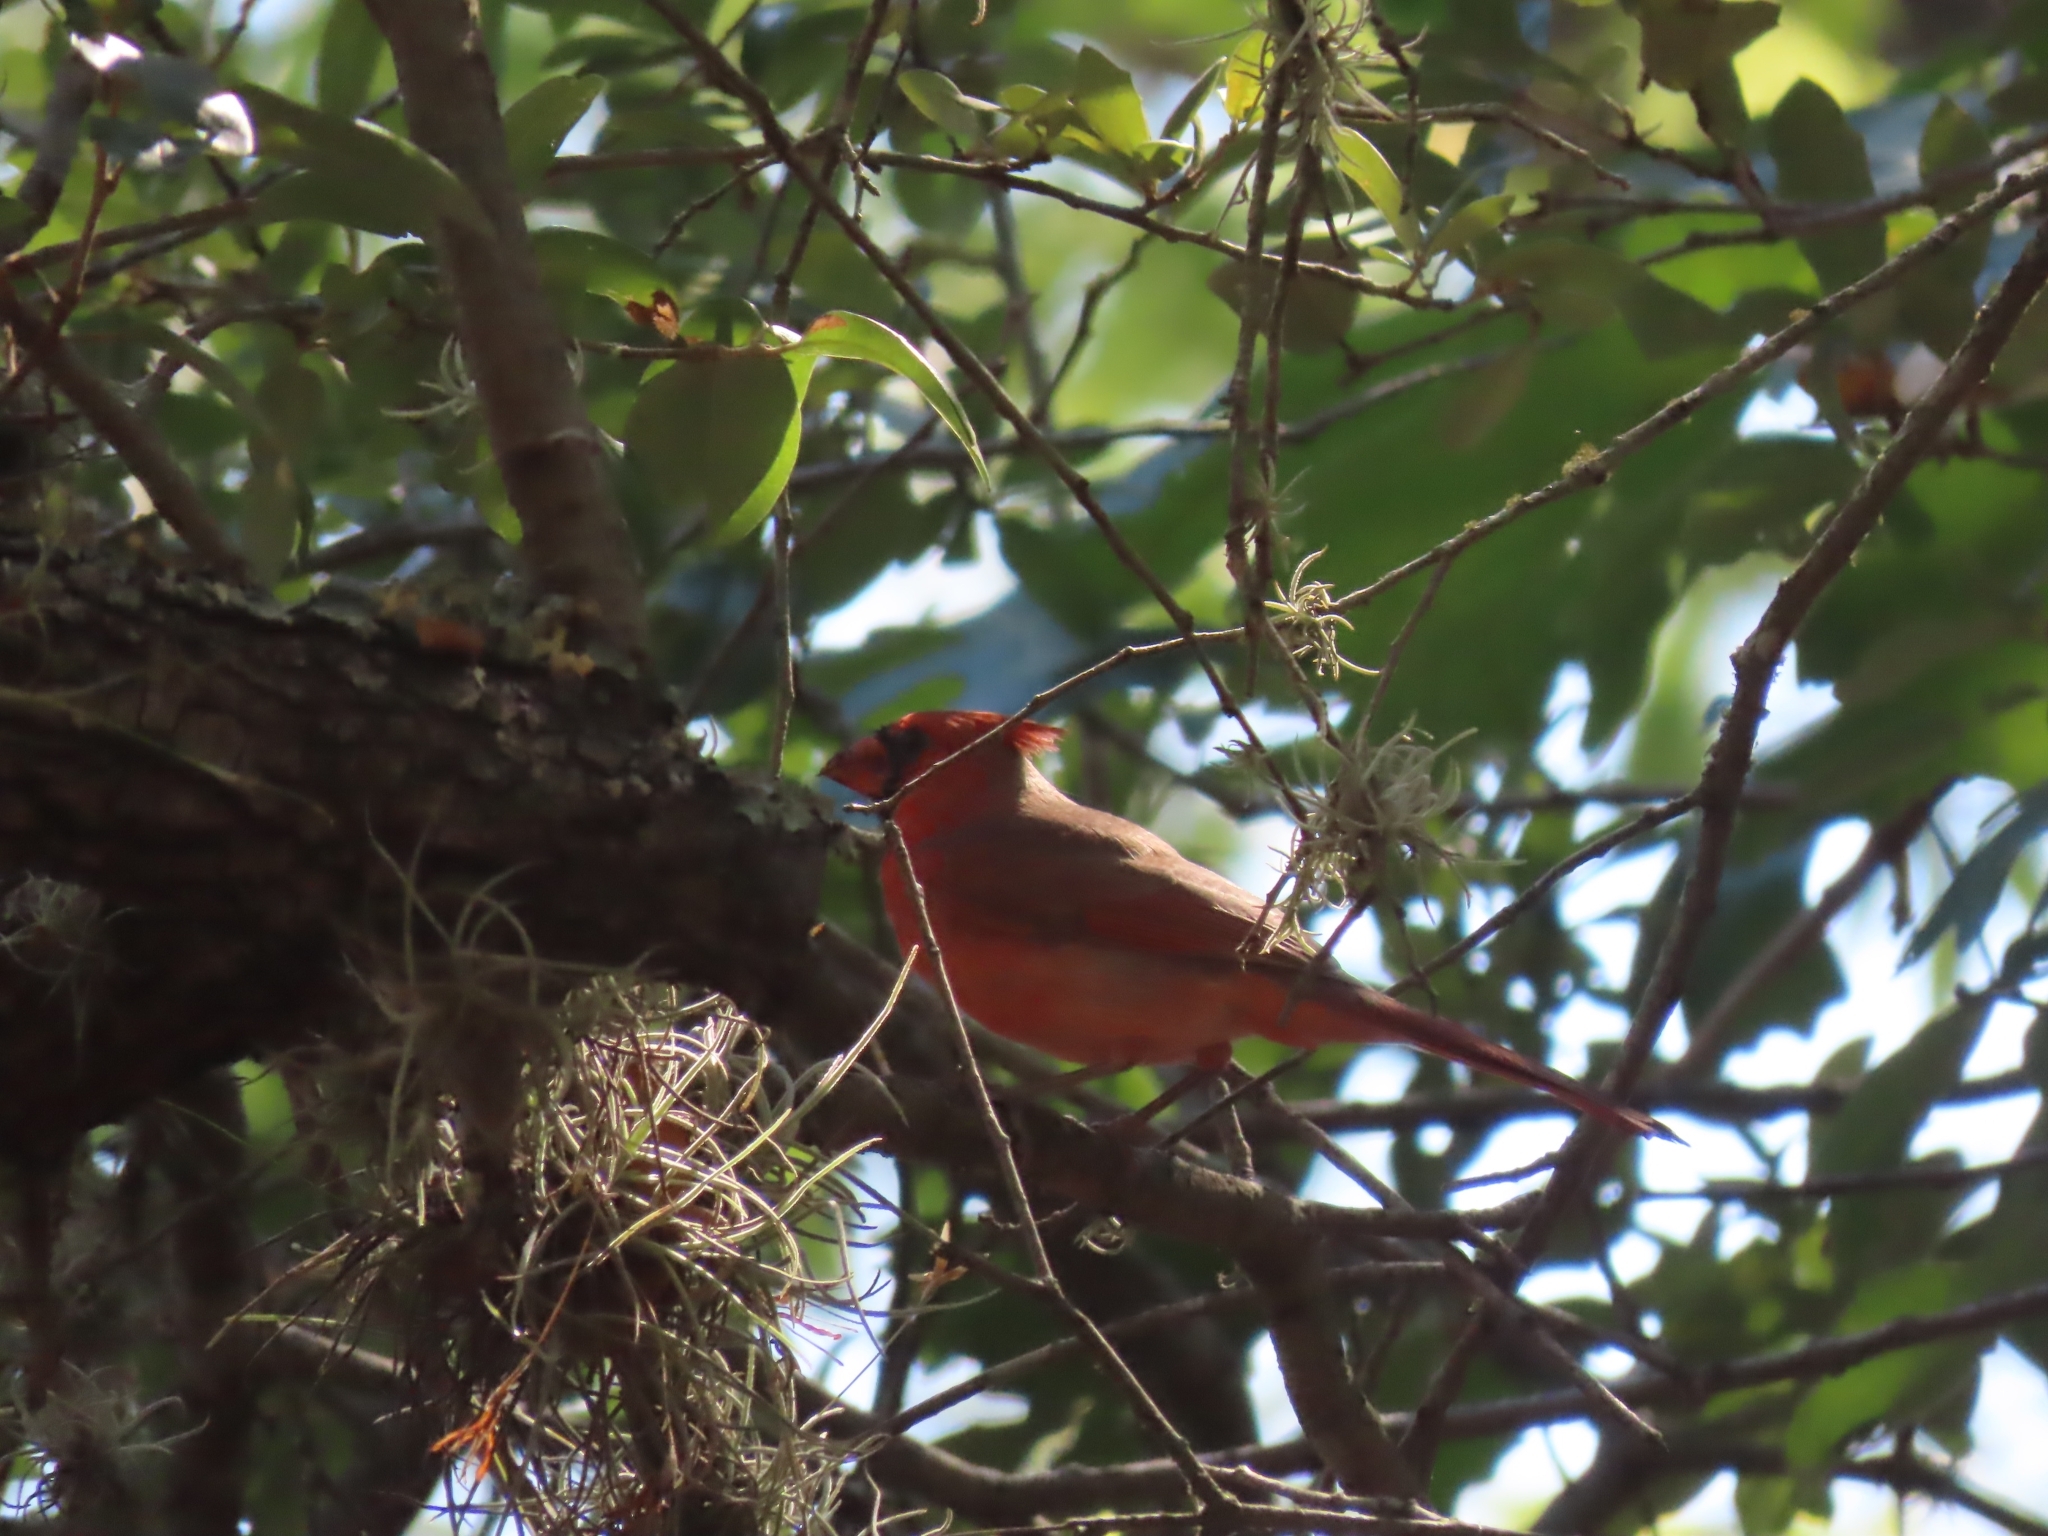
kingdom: Animalia
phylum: Chordata
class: Aves
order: Passeriformes
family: Cardinalidae
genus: Cardinalis
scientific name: Cardinalis cardinalis
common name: Northern cardinal
